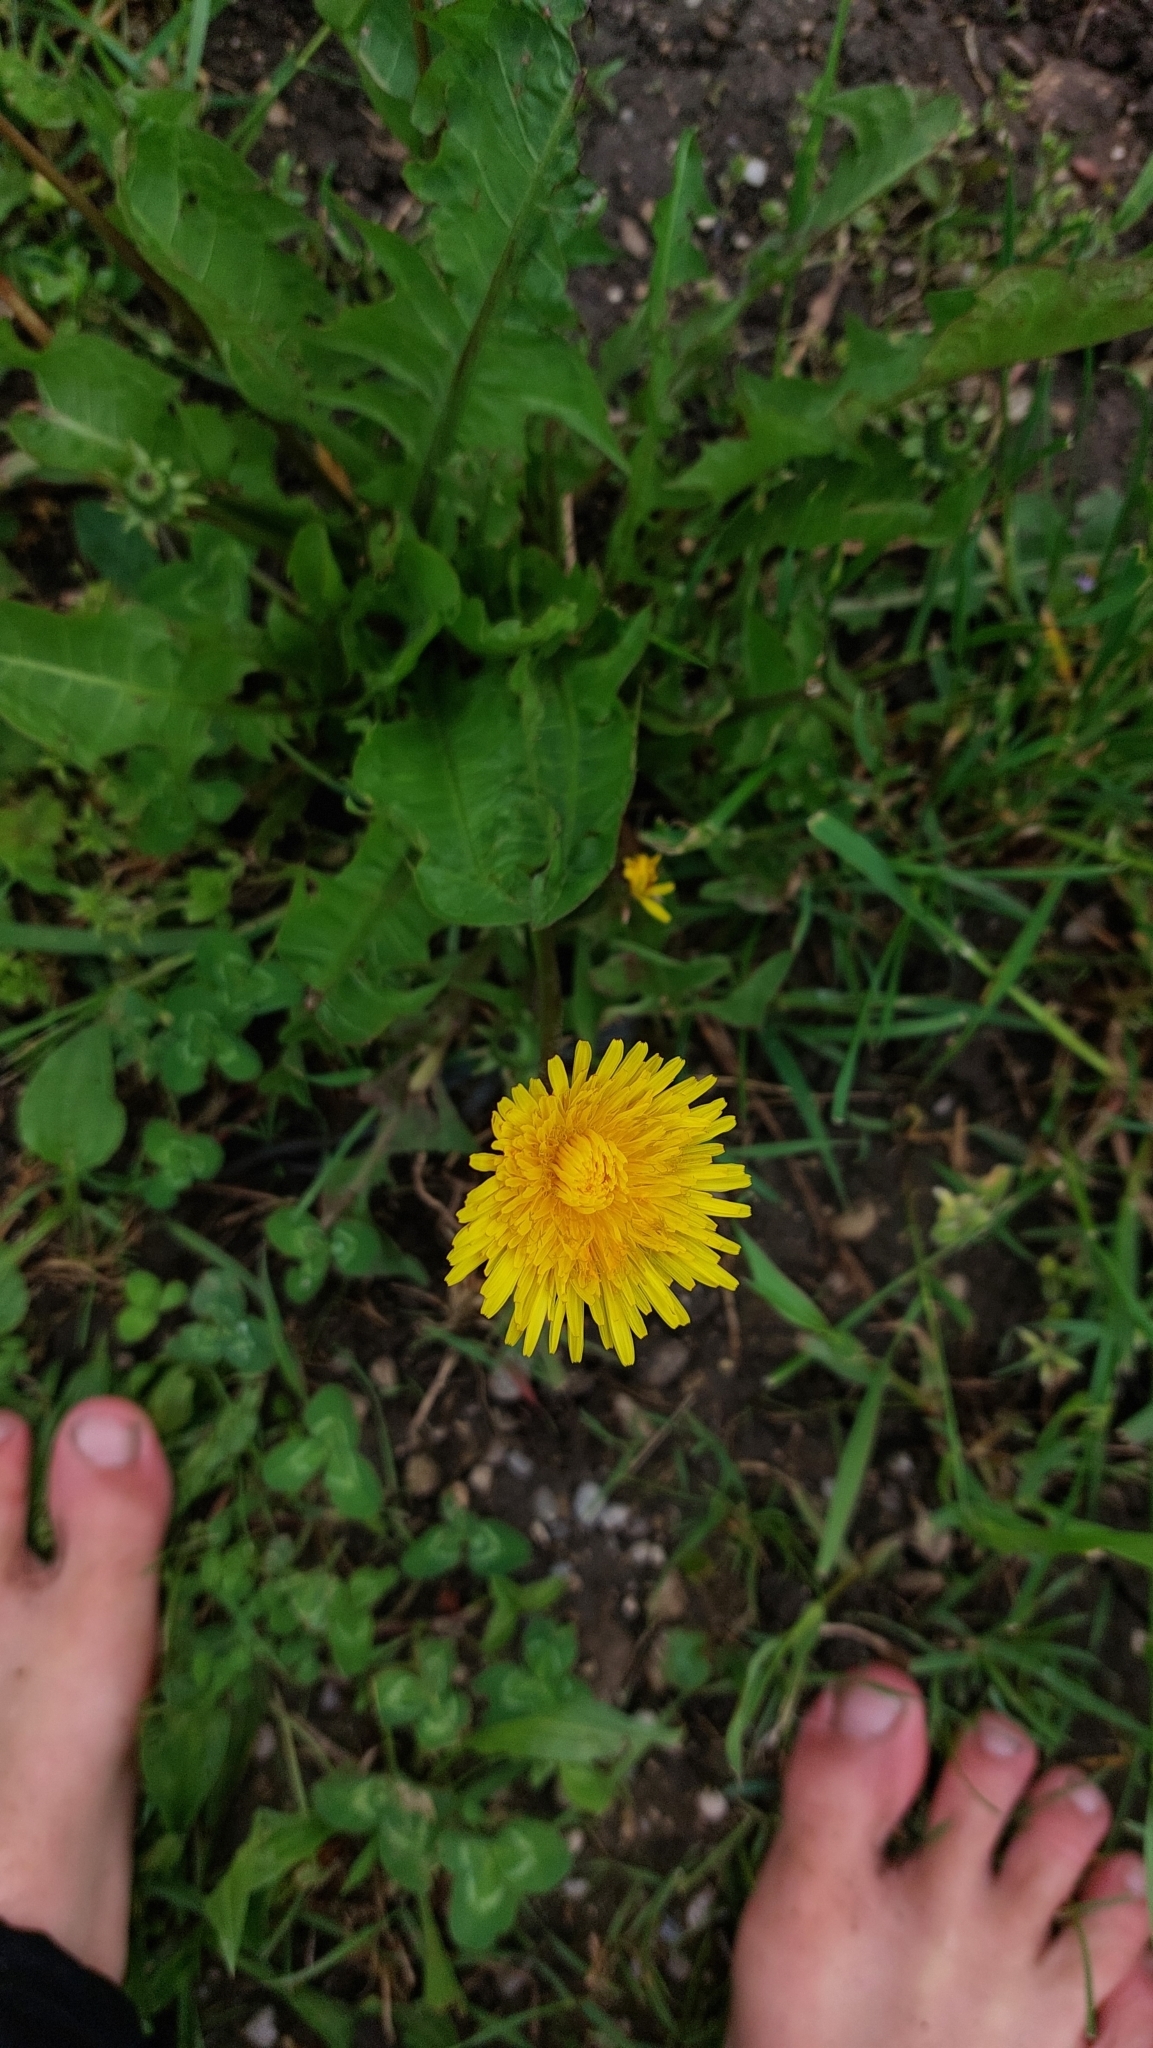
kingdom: Plantae
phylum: Tracheophyta
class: Magnoliopsida
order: Asterales
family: Asteraceae
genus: Taraxacum
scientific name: Taraxacum
